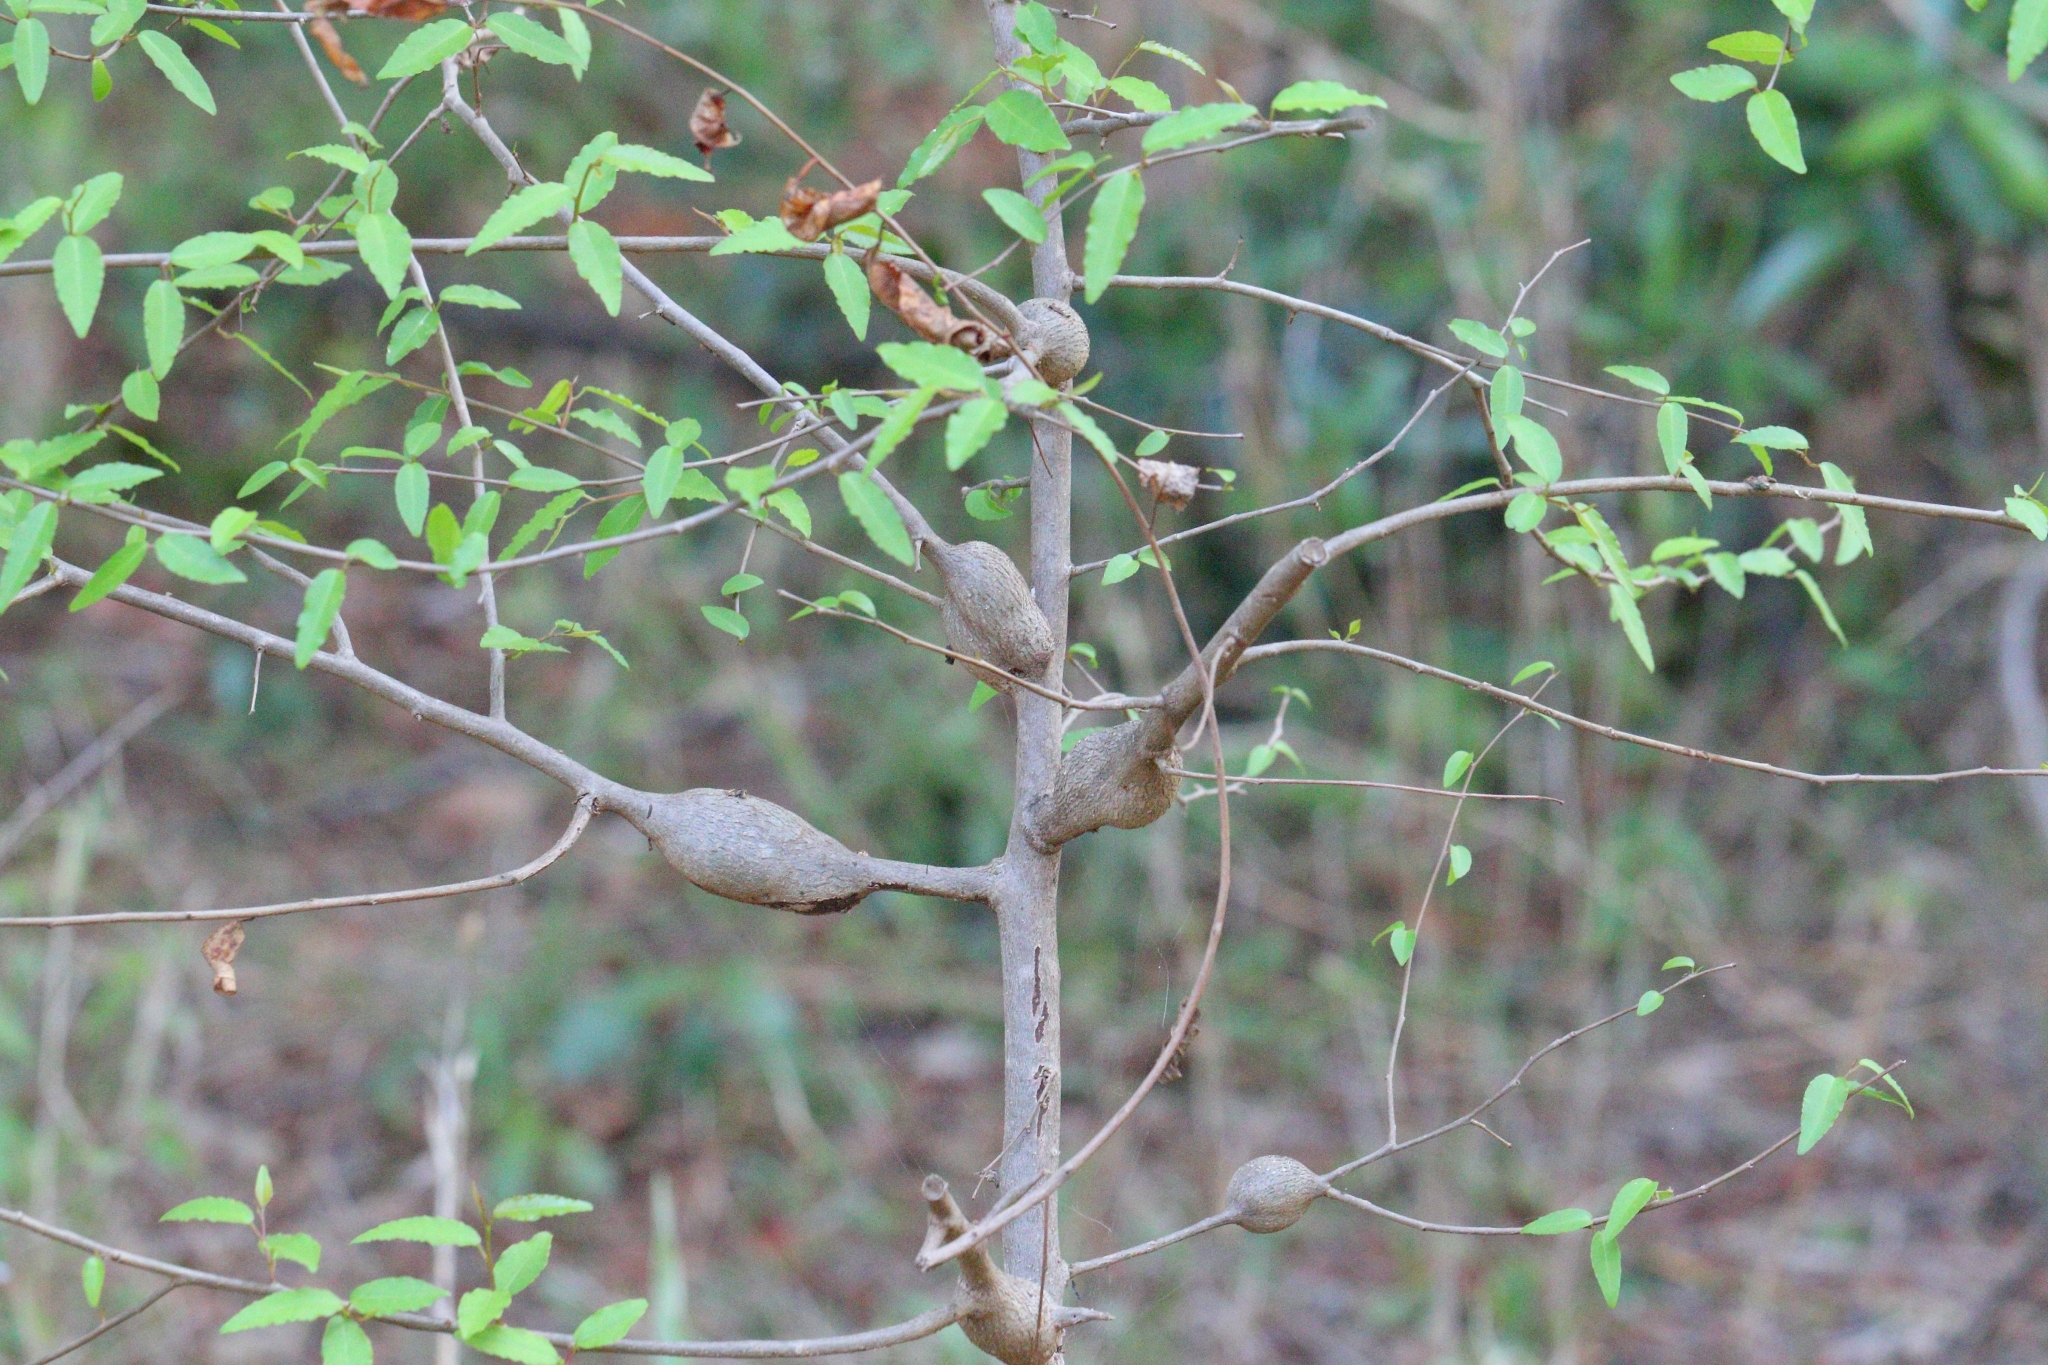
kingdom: Plantae
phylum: Tracheophyta
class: Magnoliopsida
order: Malpighiales
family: Euphorbiaceae
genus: Spirostachys
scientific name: Spirostachys africana
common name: Tamboti
